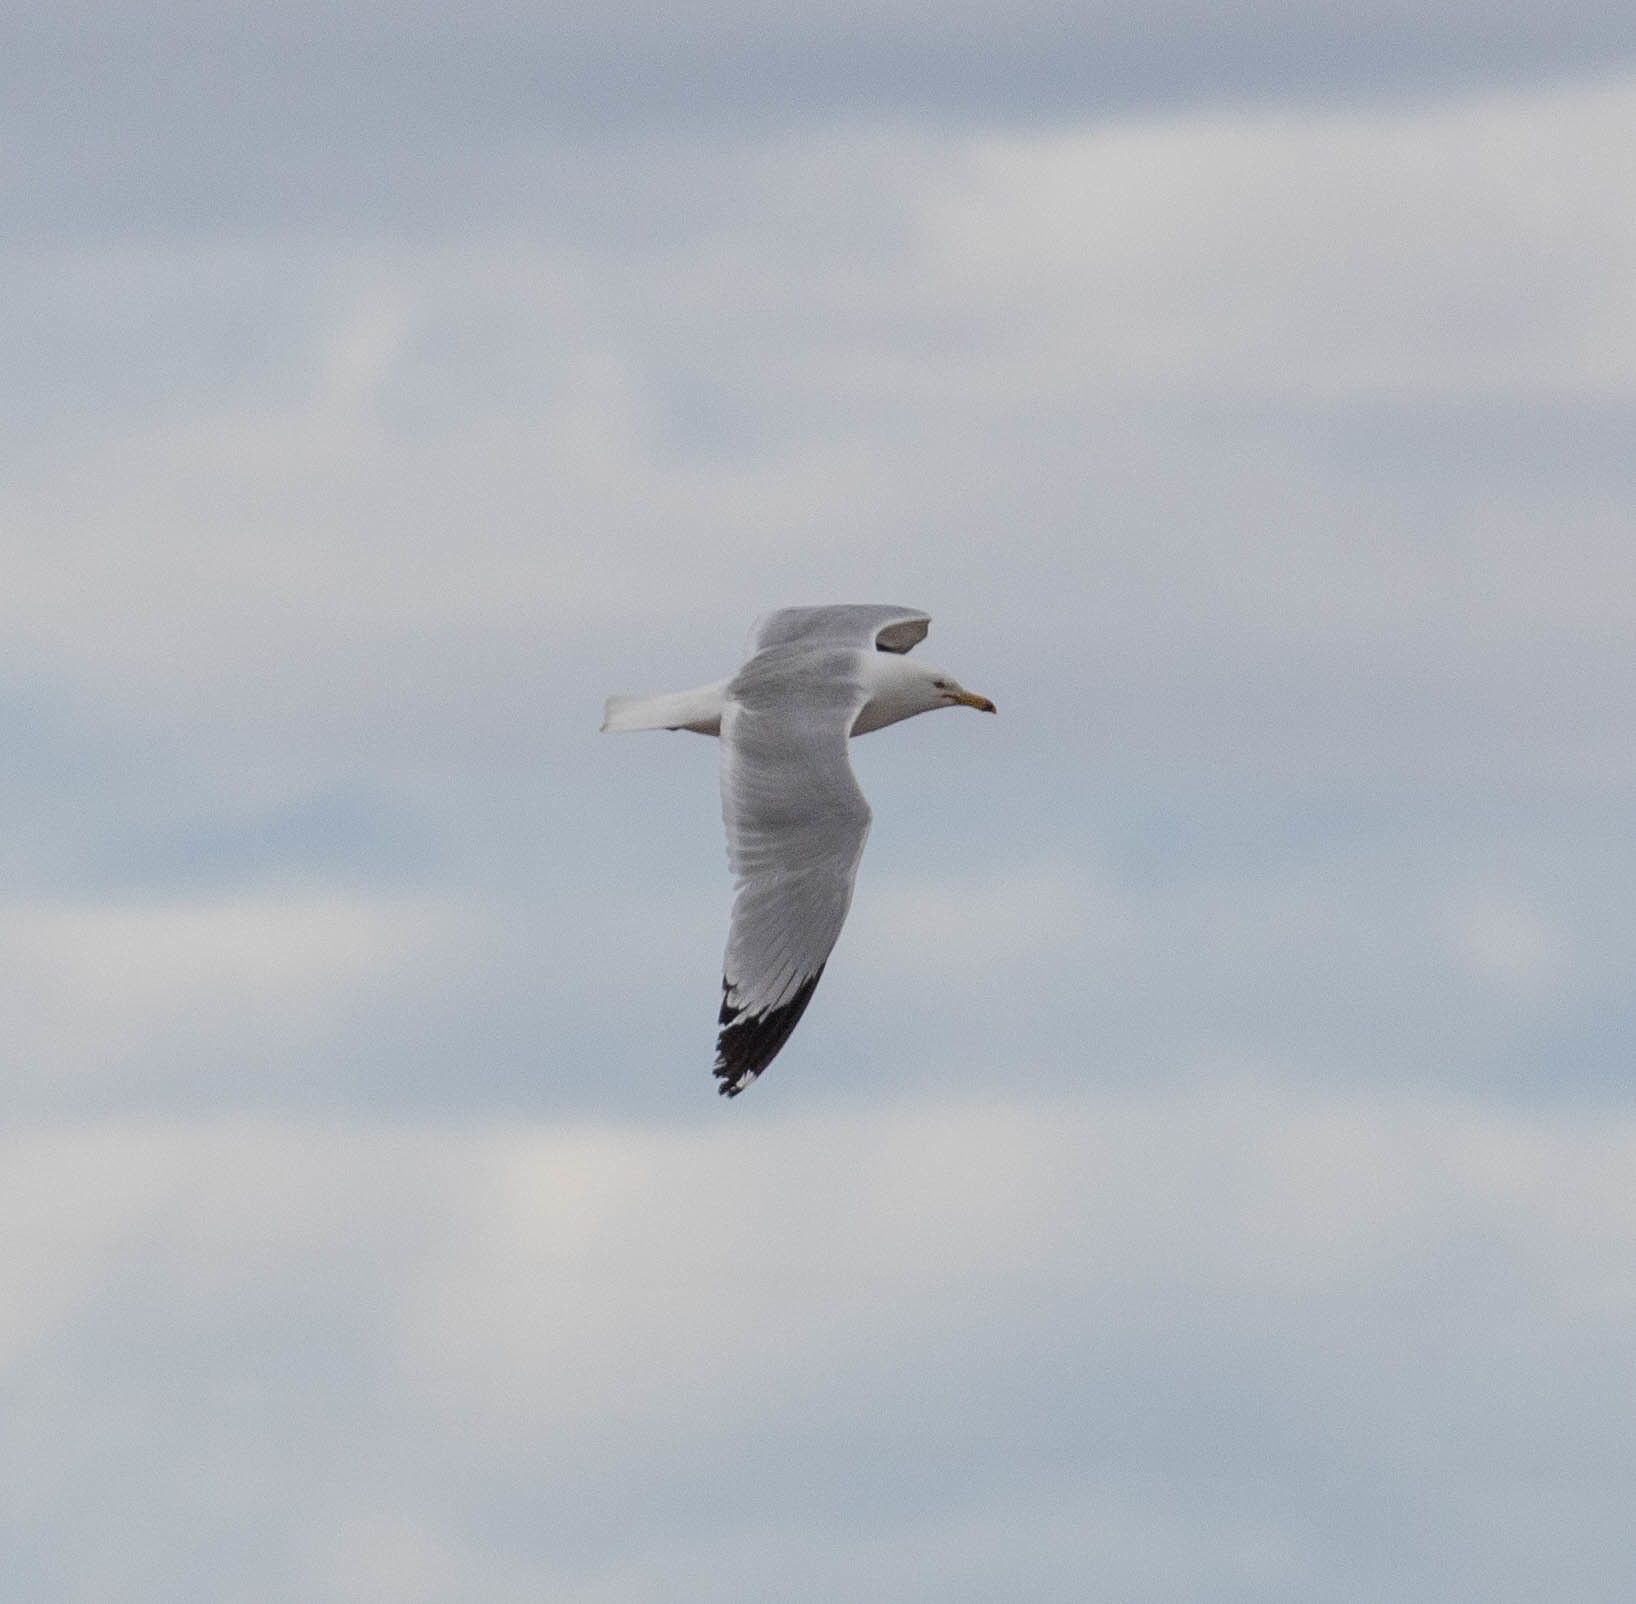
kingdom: Animalia
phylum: Chordata
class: Aves
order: Charadriiformes
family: Laridae
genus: Larus
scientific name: Larus californicus
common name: California gull
